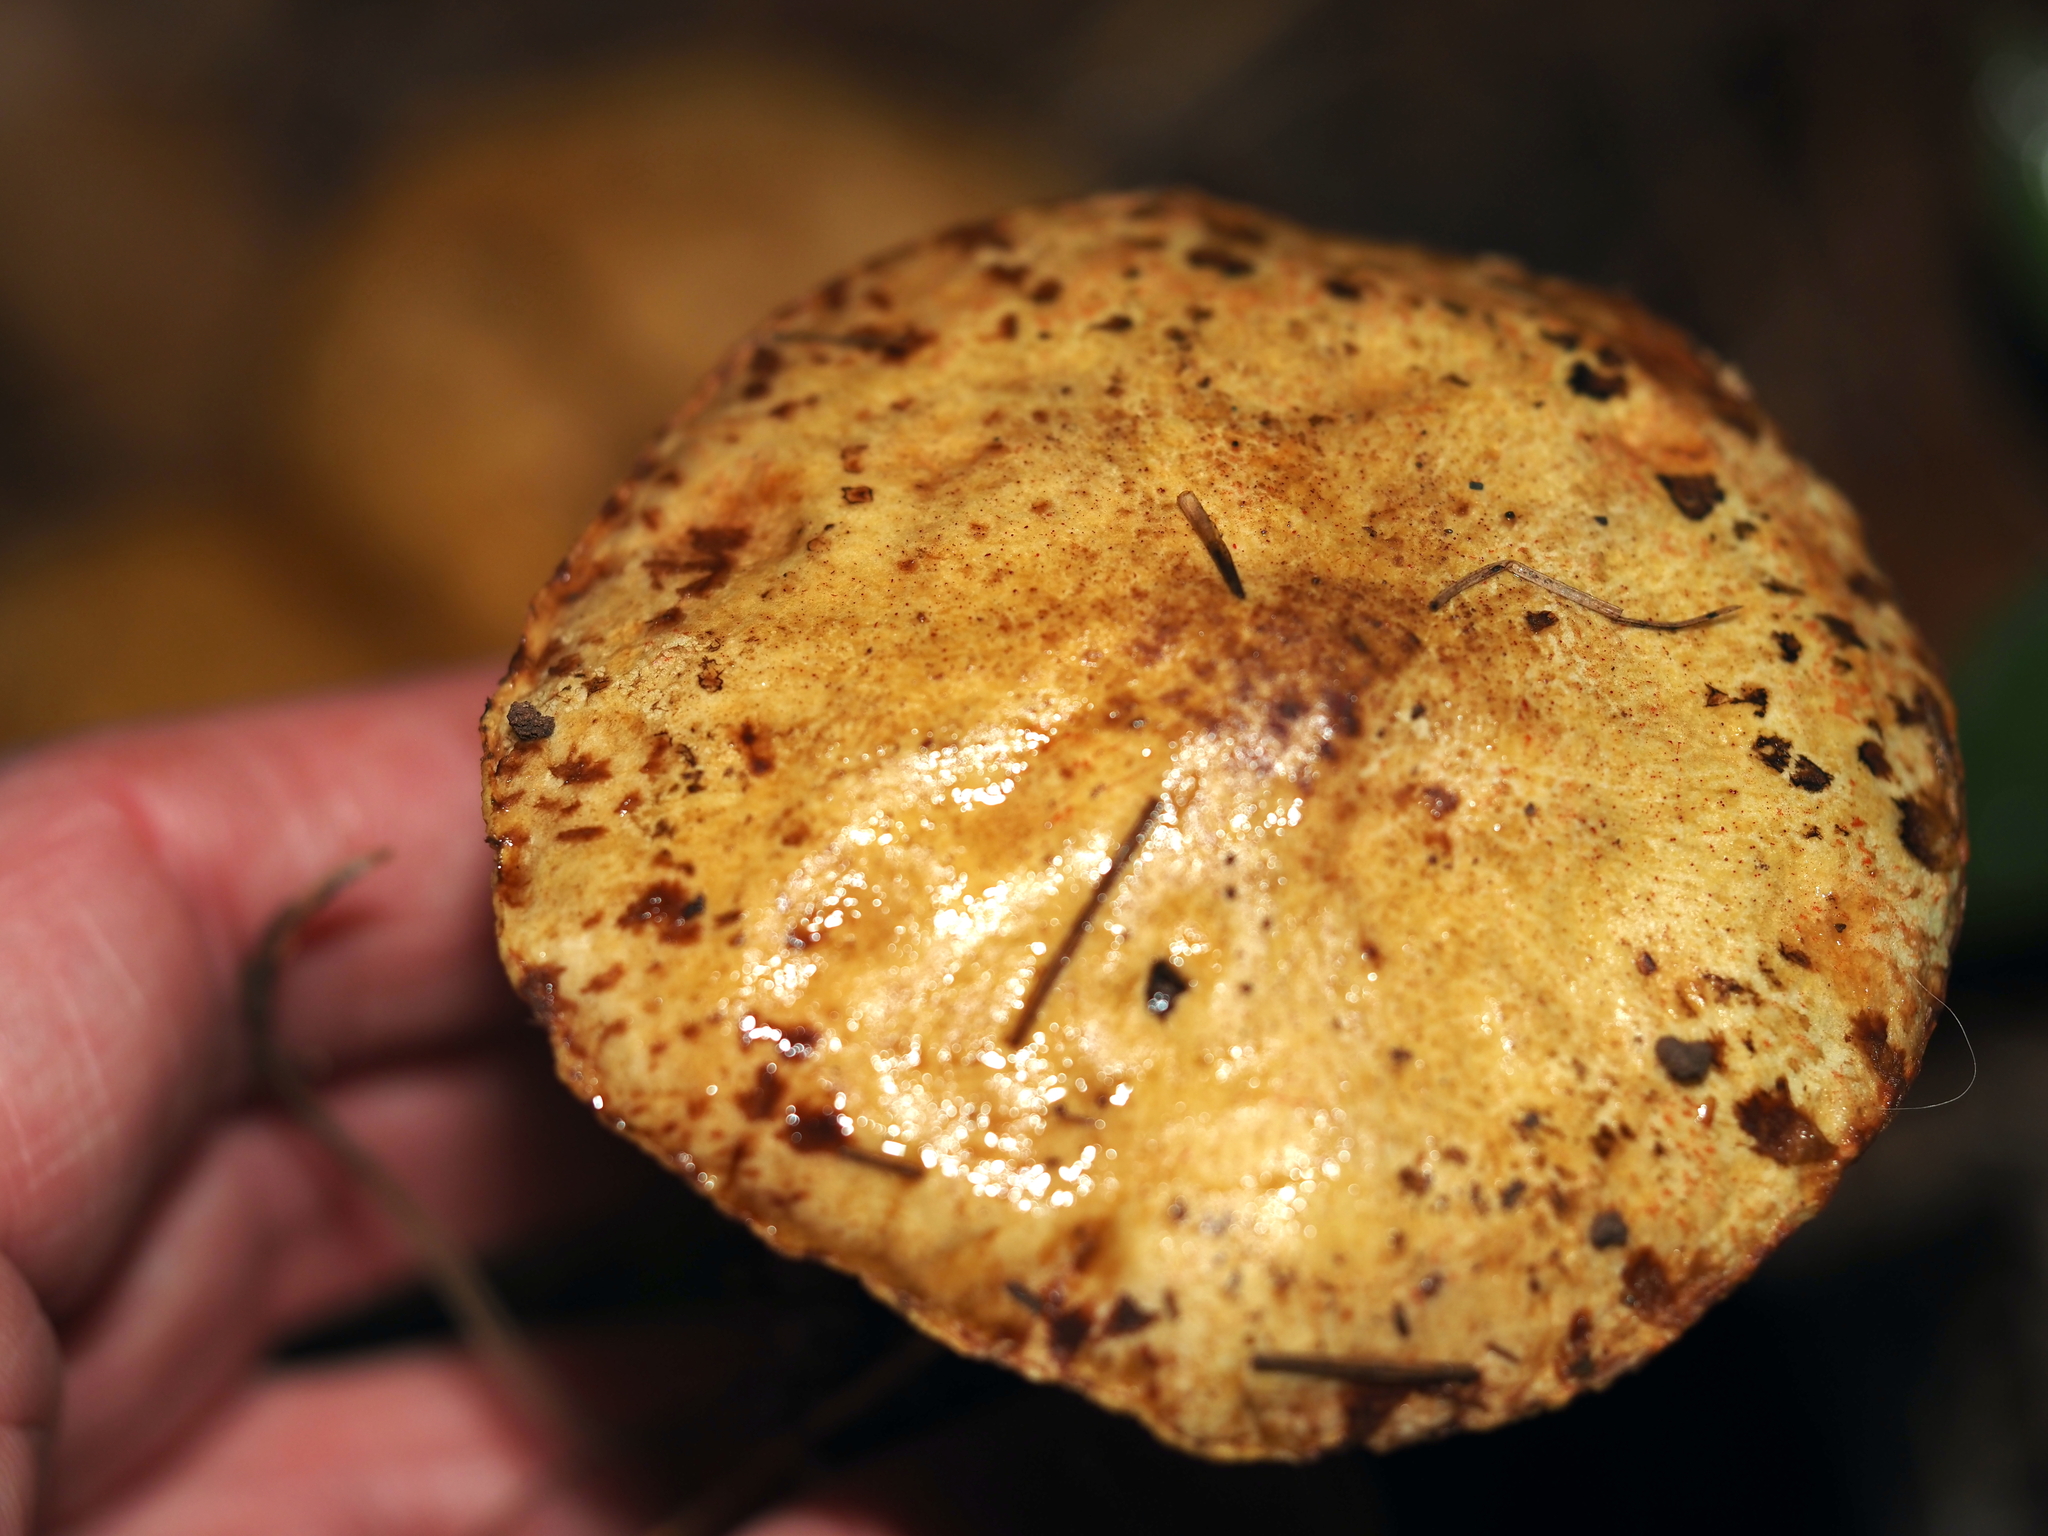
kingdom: Fungi
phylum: Basidiomycota
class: Agaricomycetes
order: Boletales
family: Suillaceae
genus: Suillus
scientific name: Suillus americanus
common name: Chicken fat mushroom
